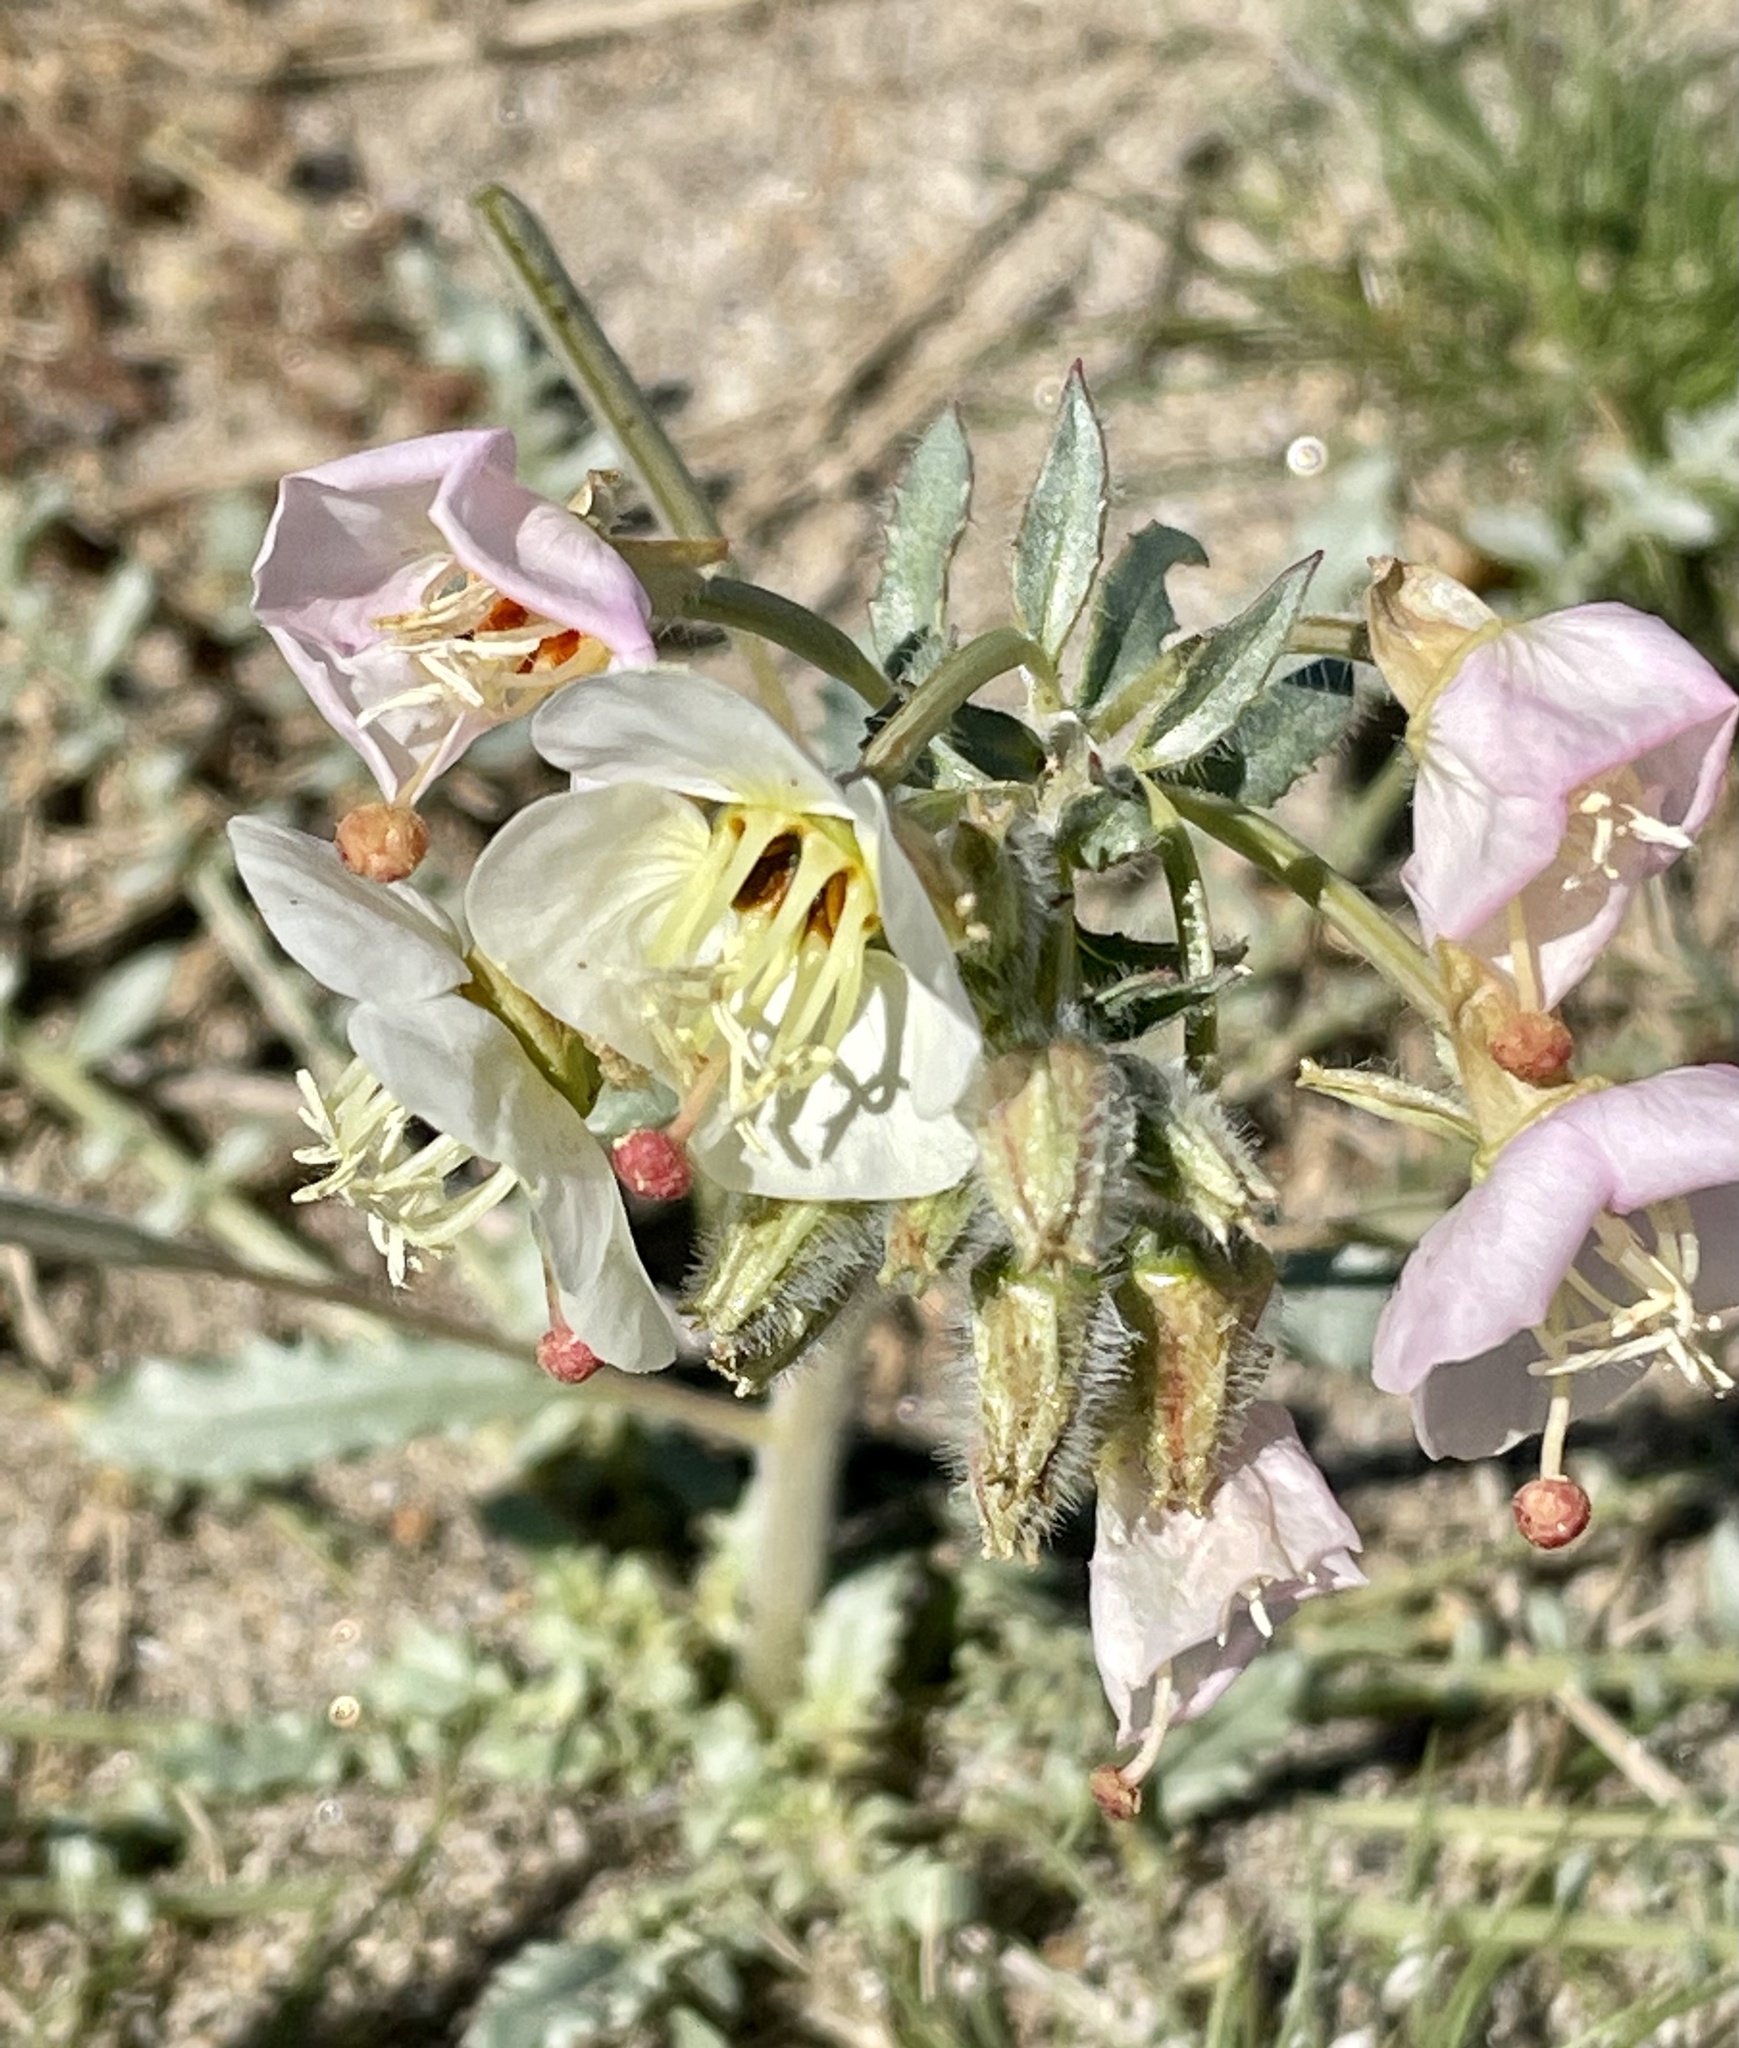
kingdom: Plantae
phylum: Tracheophyta
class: Magnoliopsida
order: Myrtales
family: Onagraceae
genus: Chylismia
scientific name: Chylismia claviformis
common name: Browneyes
